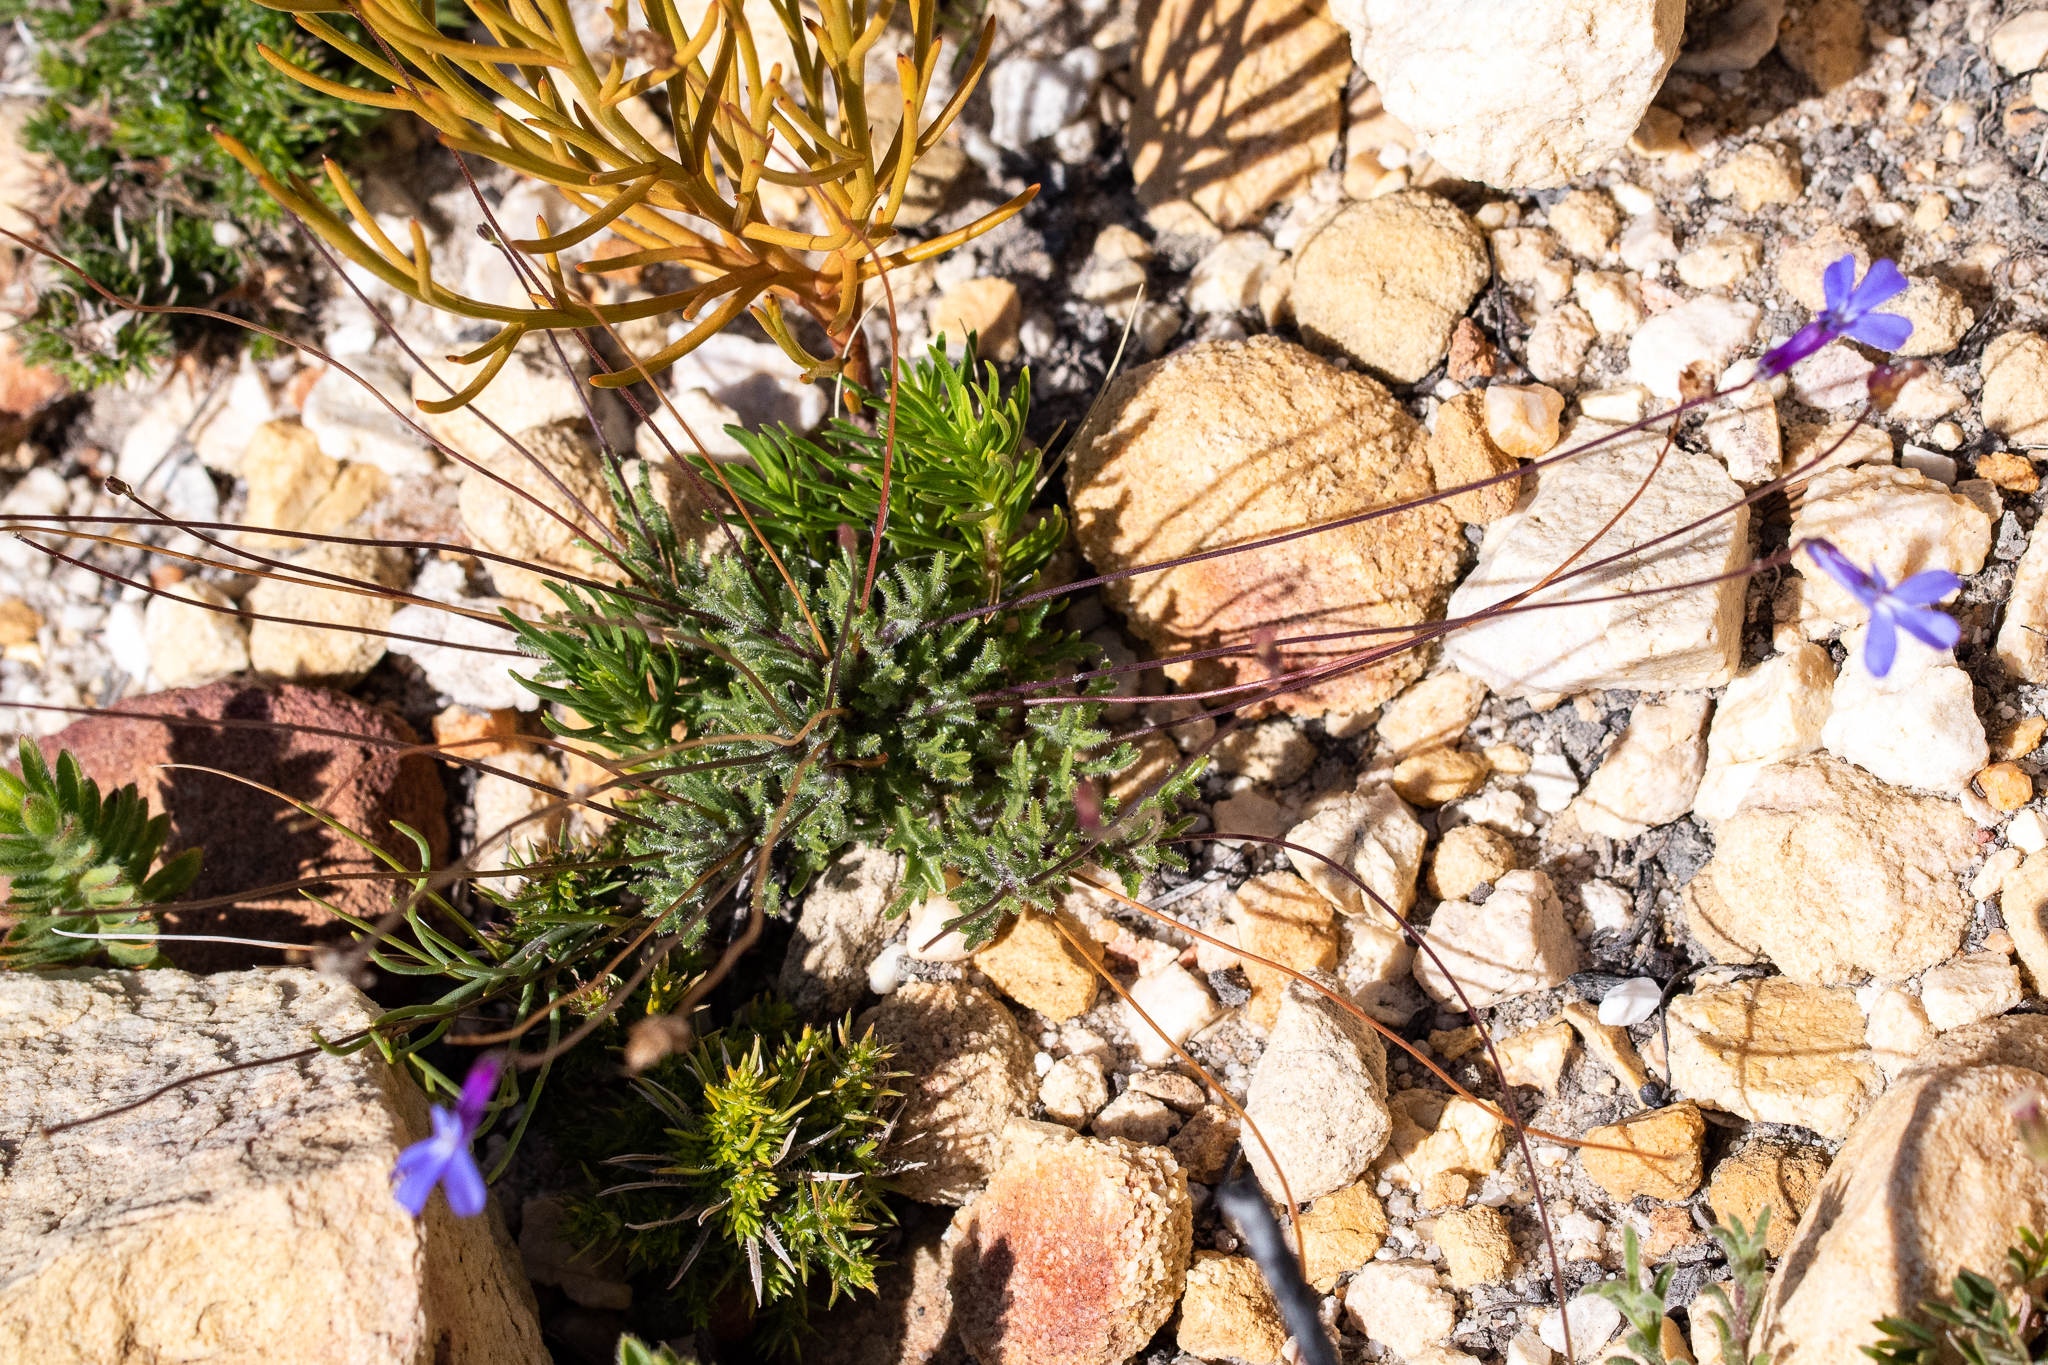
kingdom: Plantae
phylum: Tracheophyta
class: Magnoliopsida
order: Asterales
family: Campanulaceae
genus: Lobelia
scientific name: Lobelia chamaepitys
